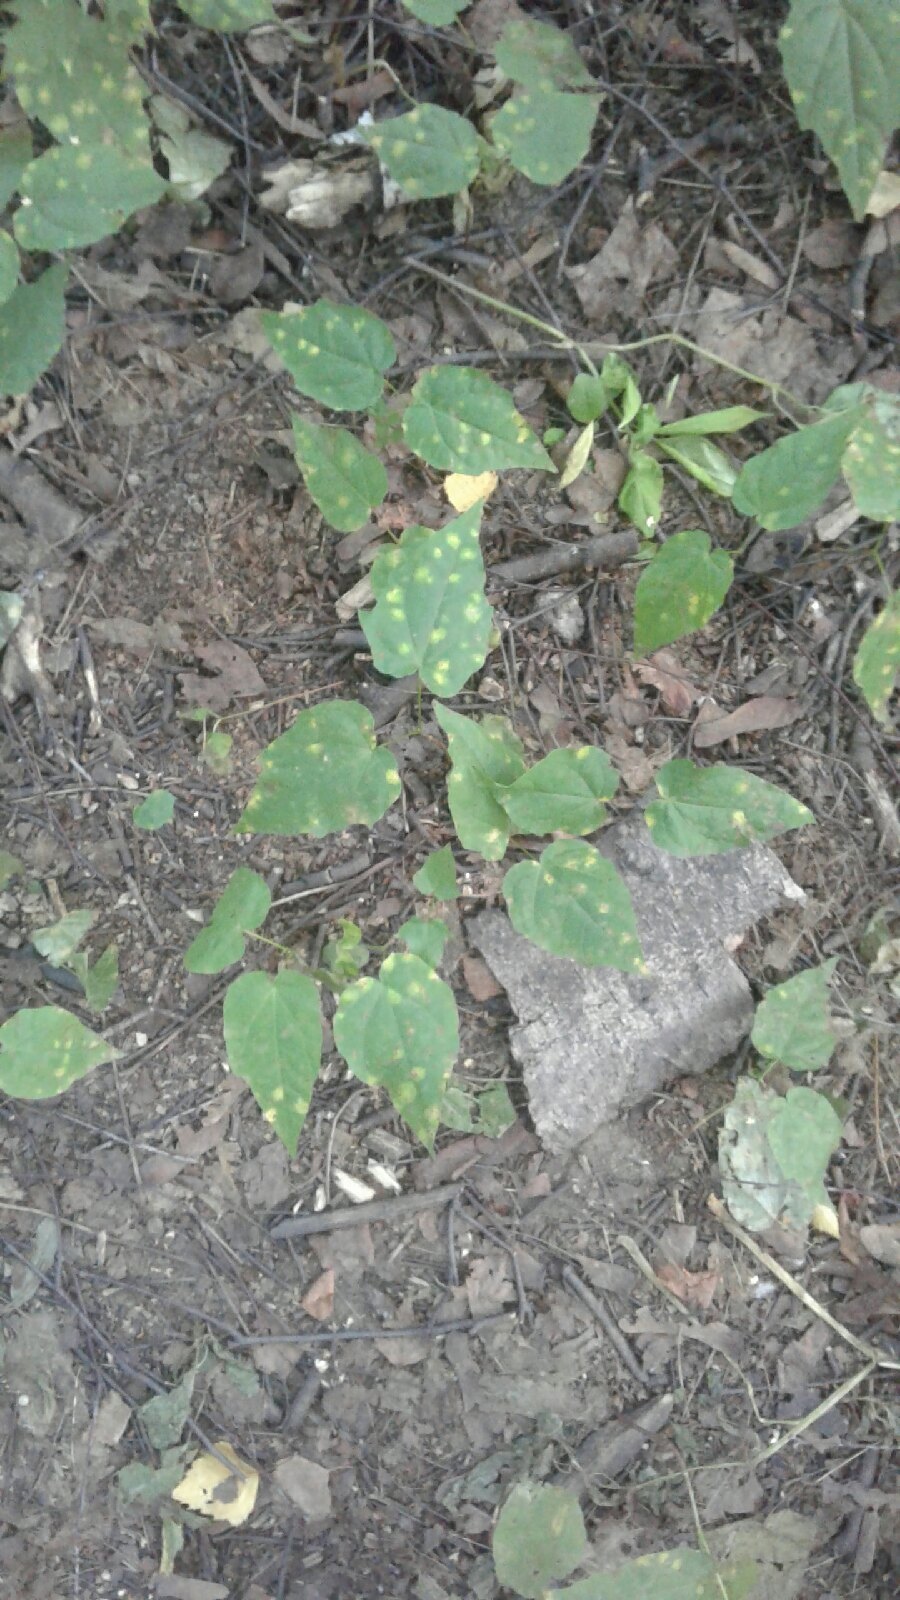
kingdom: Plantae
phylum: Tracheophyta
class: Magnoliopsida
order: Sapindales
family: Sapindaceae
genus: Acer
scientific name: Acer platanoides
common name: Norway maple
